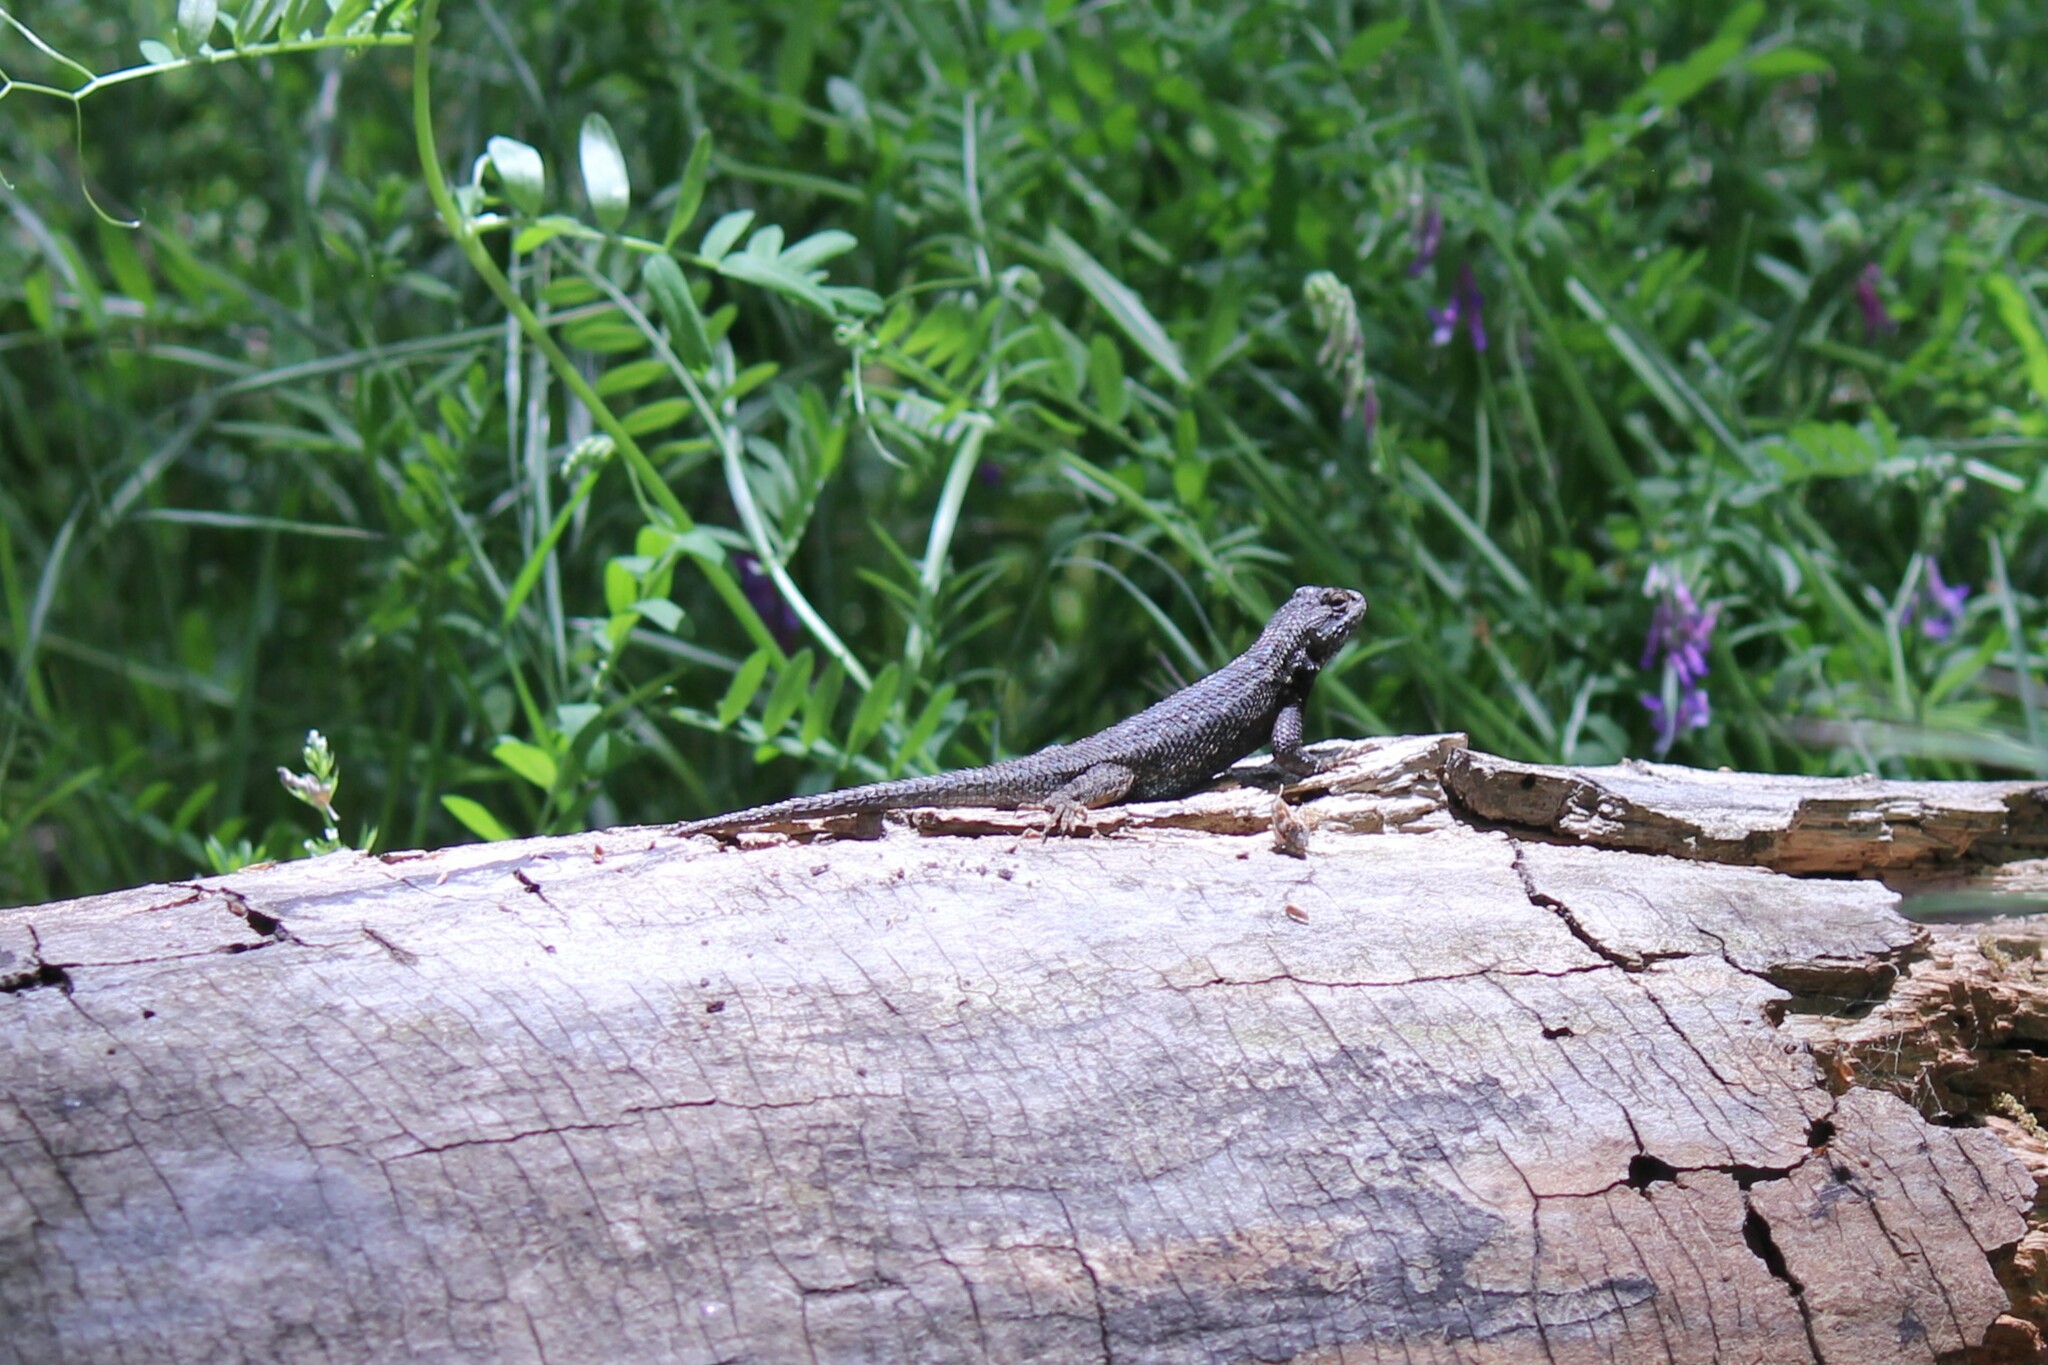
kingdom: Animalia
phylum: Chordata
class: Squamata
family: Phrynosomatidae
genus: Sceloporus
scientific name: Sceloporus occidentalis
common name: Western fence lizard
